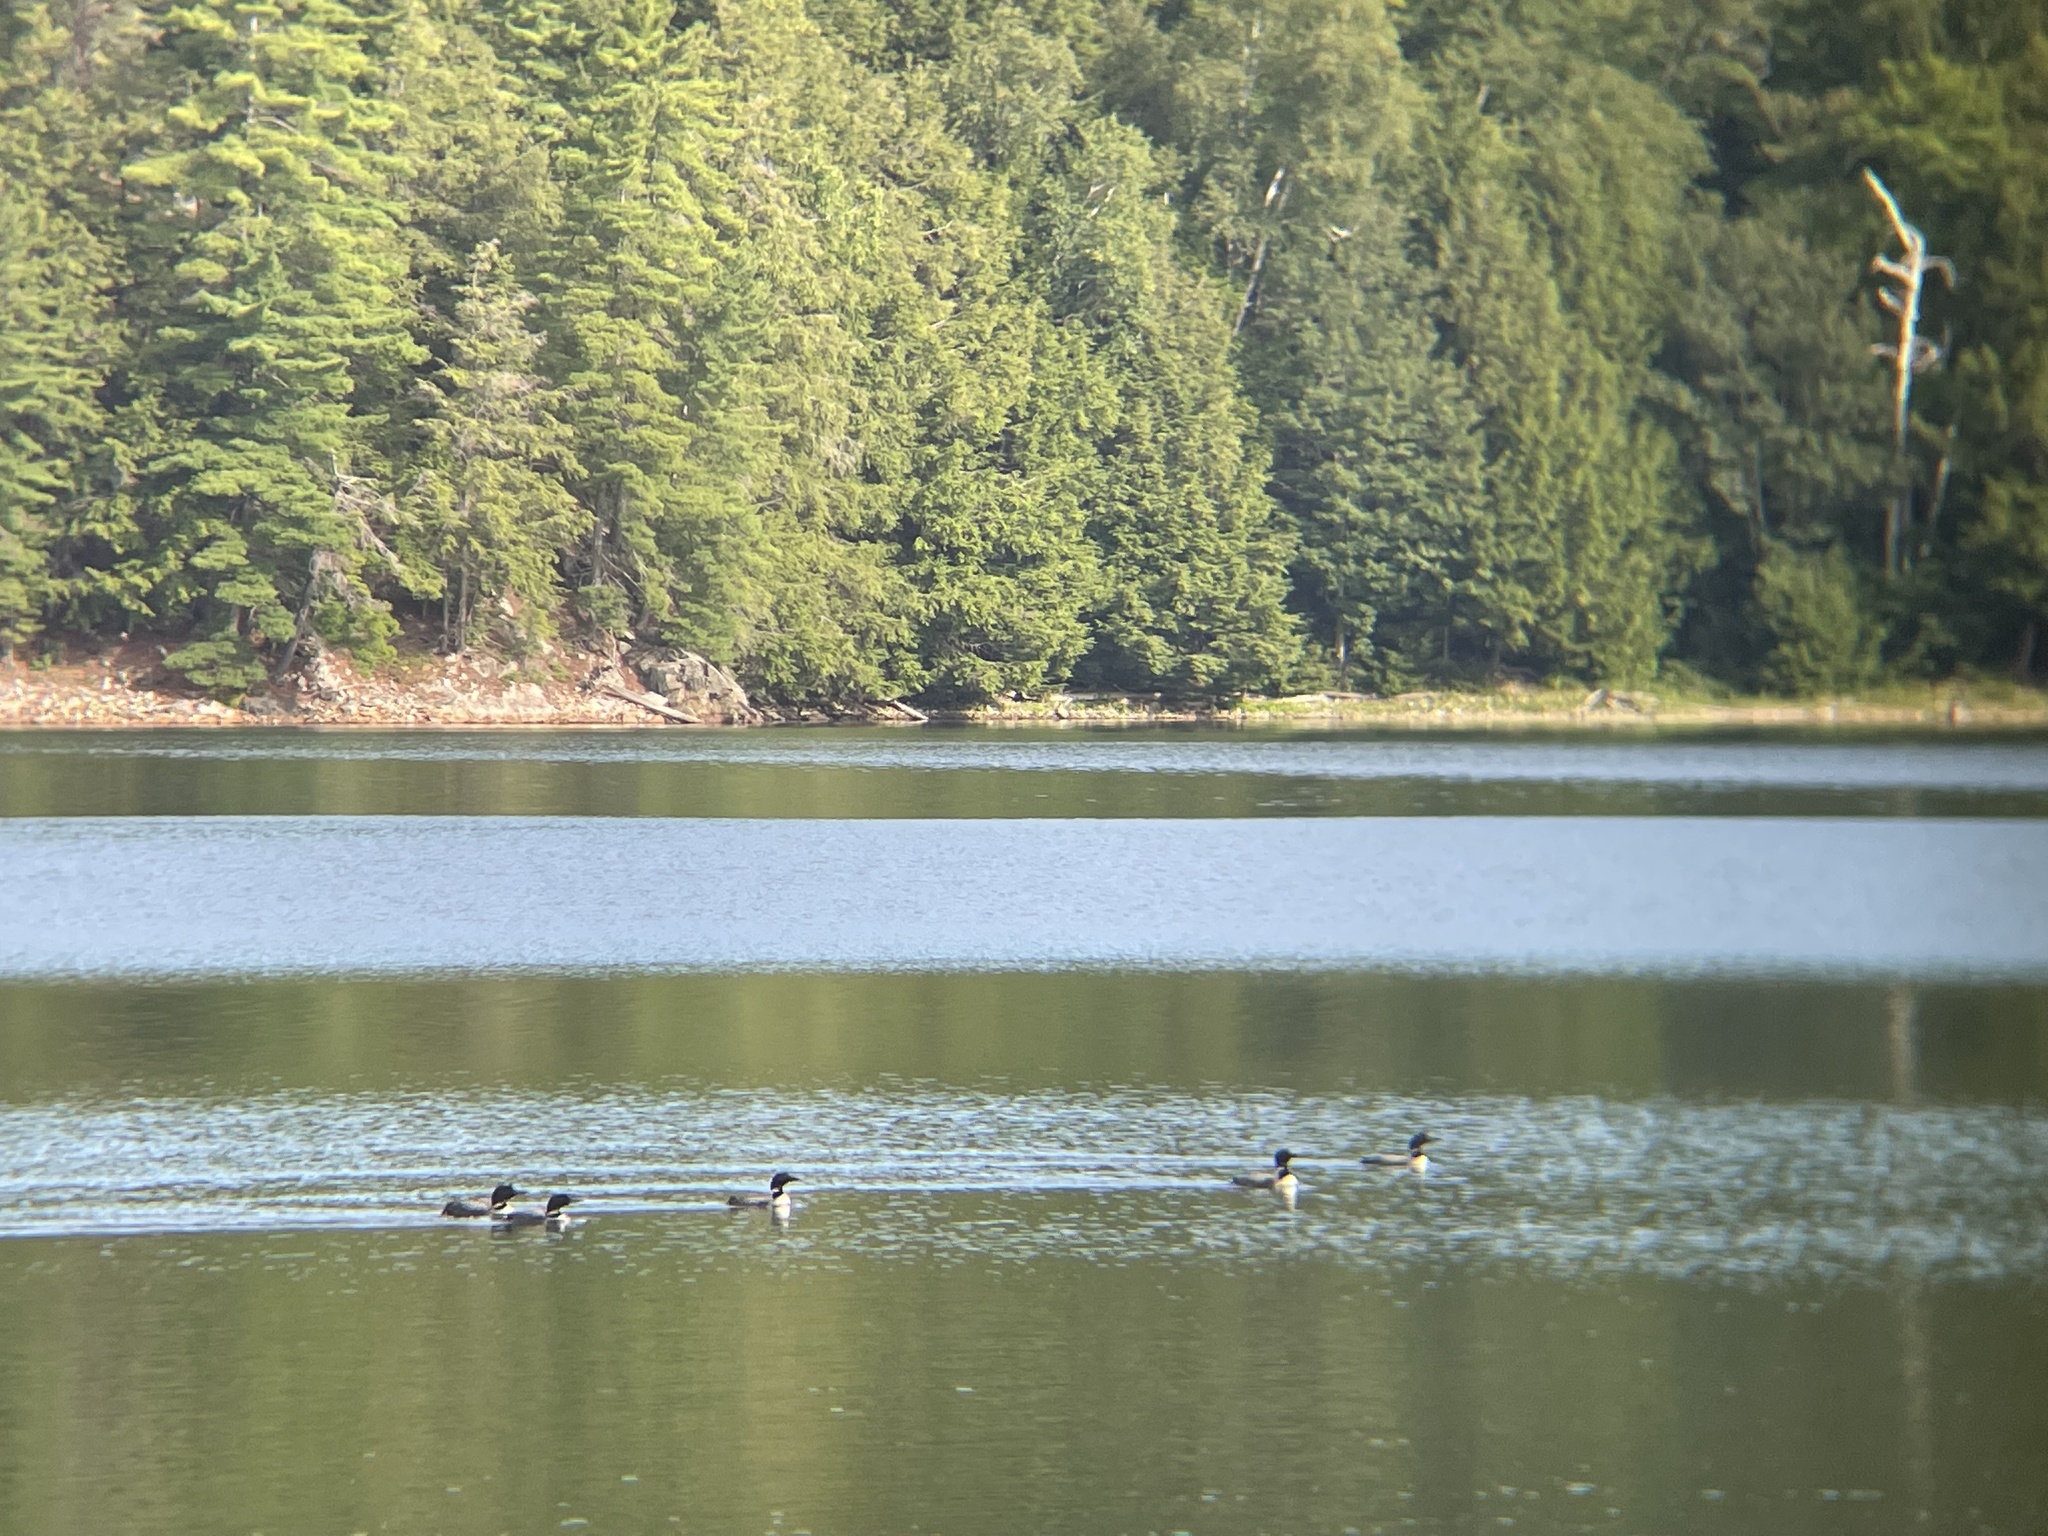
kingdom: Animalia
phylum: Chordata
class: Aves
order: Gaviiformes
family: Gaviidae
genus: Gavia
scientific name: Gavia immer
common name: Common loon
